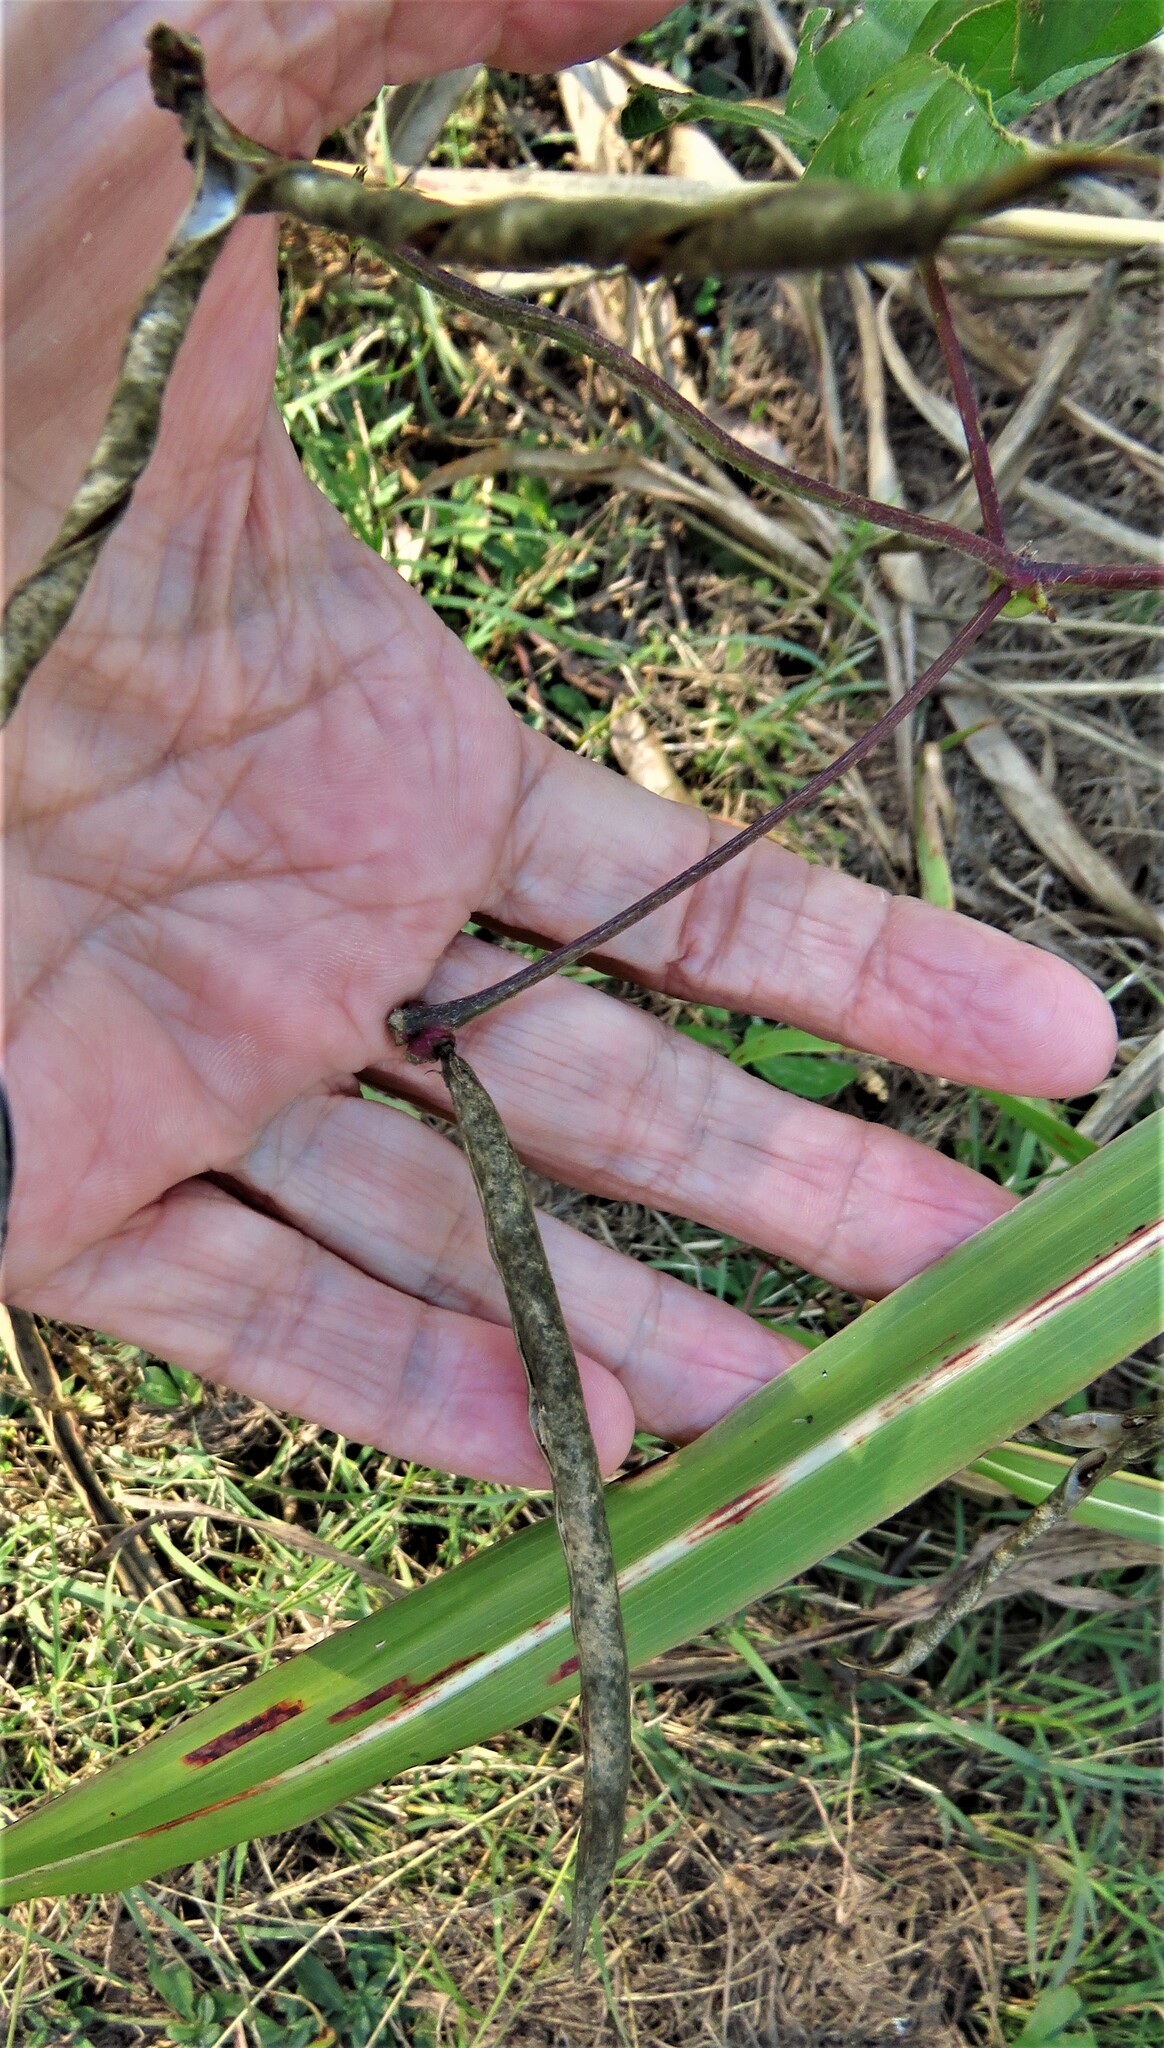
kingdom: Plantae
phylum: Tracheophyta
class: Magnoliopsida
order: Fabales
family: Fabaceae
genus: Strophostyles
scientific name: Strophostyles helvola
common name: Trailing wild bean
